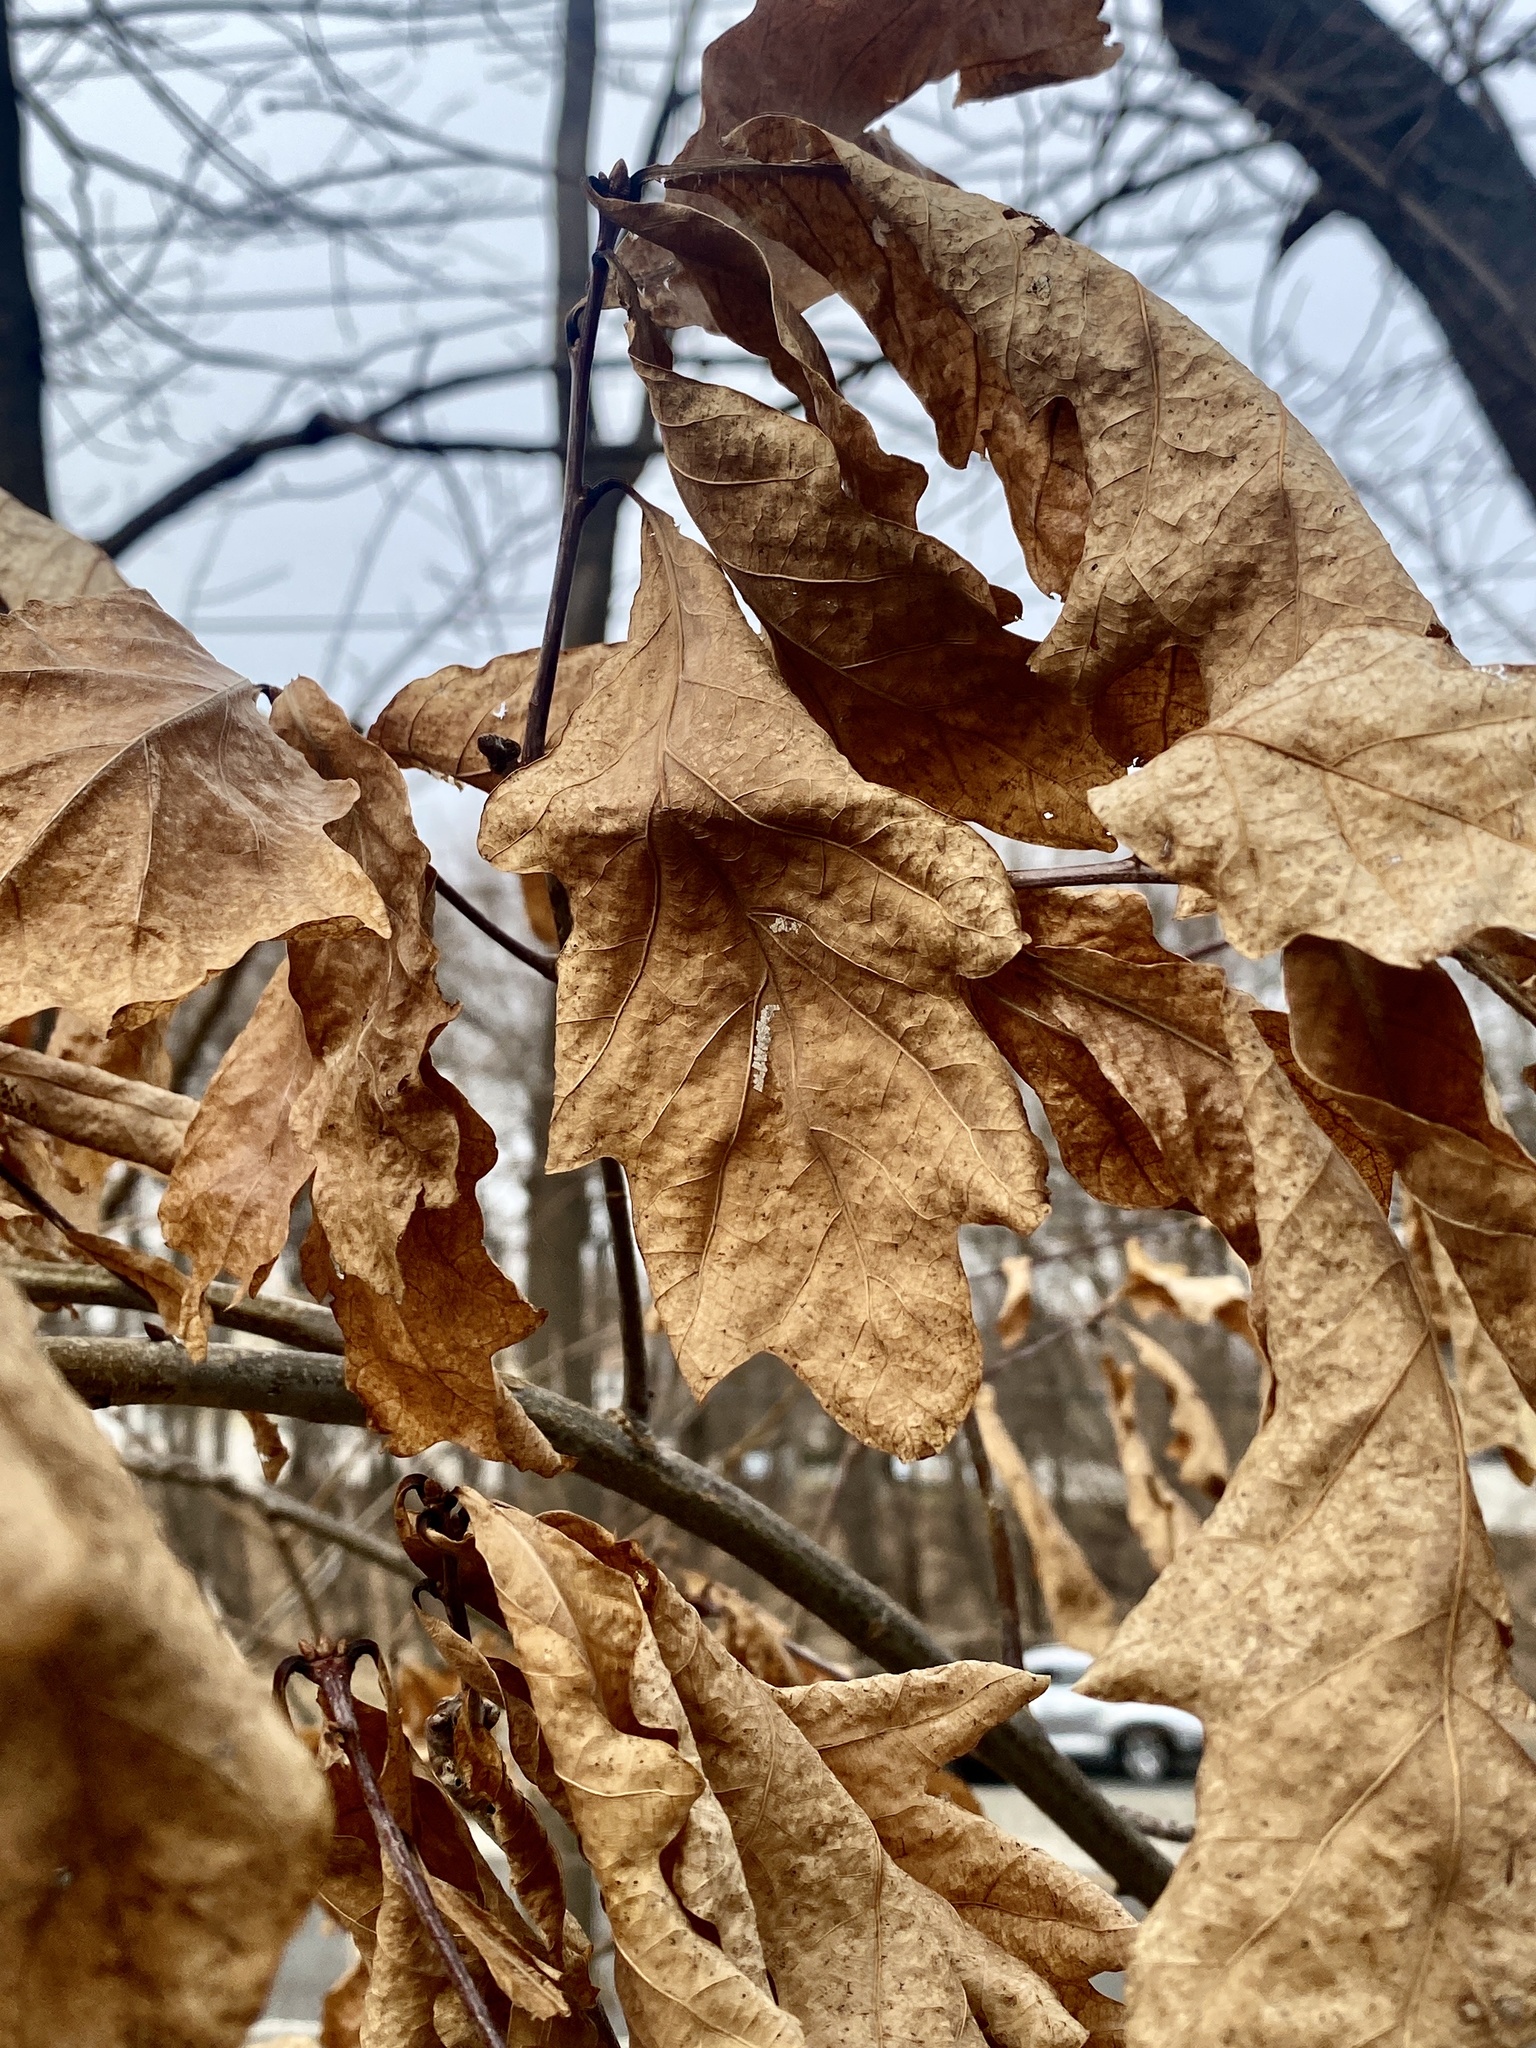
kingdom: Plantae
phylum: Tracheophyta
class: Magnoliopsida
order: Fagales
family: Fagaceae
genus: Quercus
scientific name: Quercus alba
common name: White oak
